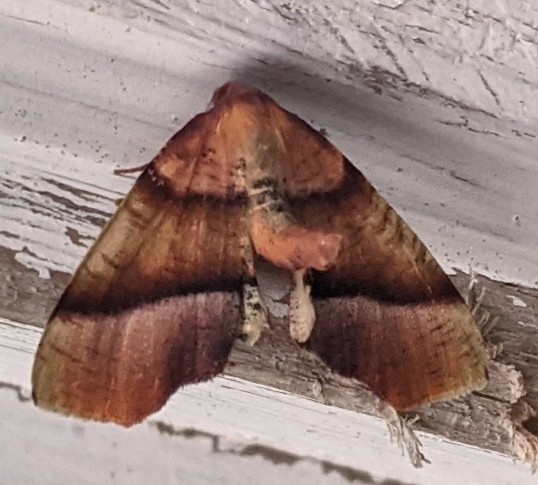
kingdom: Animalia
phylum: Arthropoda
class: Insecta
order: Lepidoptera
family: Geometridae
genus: Plagodis
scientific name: Plagodis phlogosaria
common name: Straight-lined plagodis
